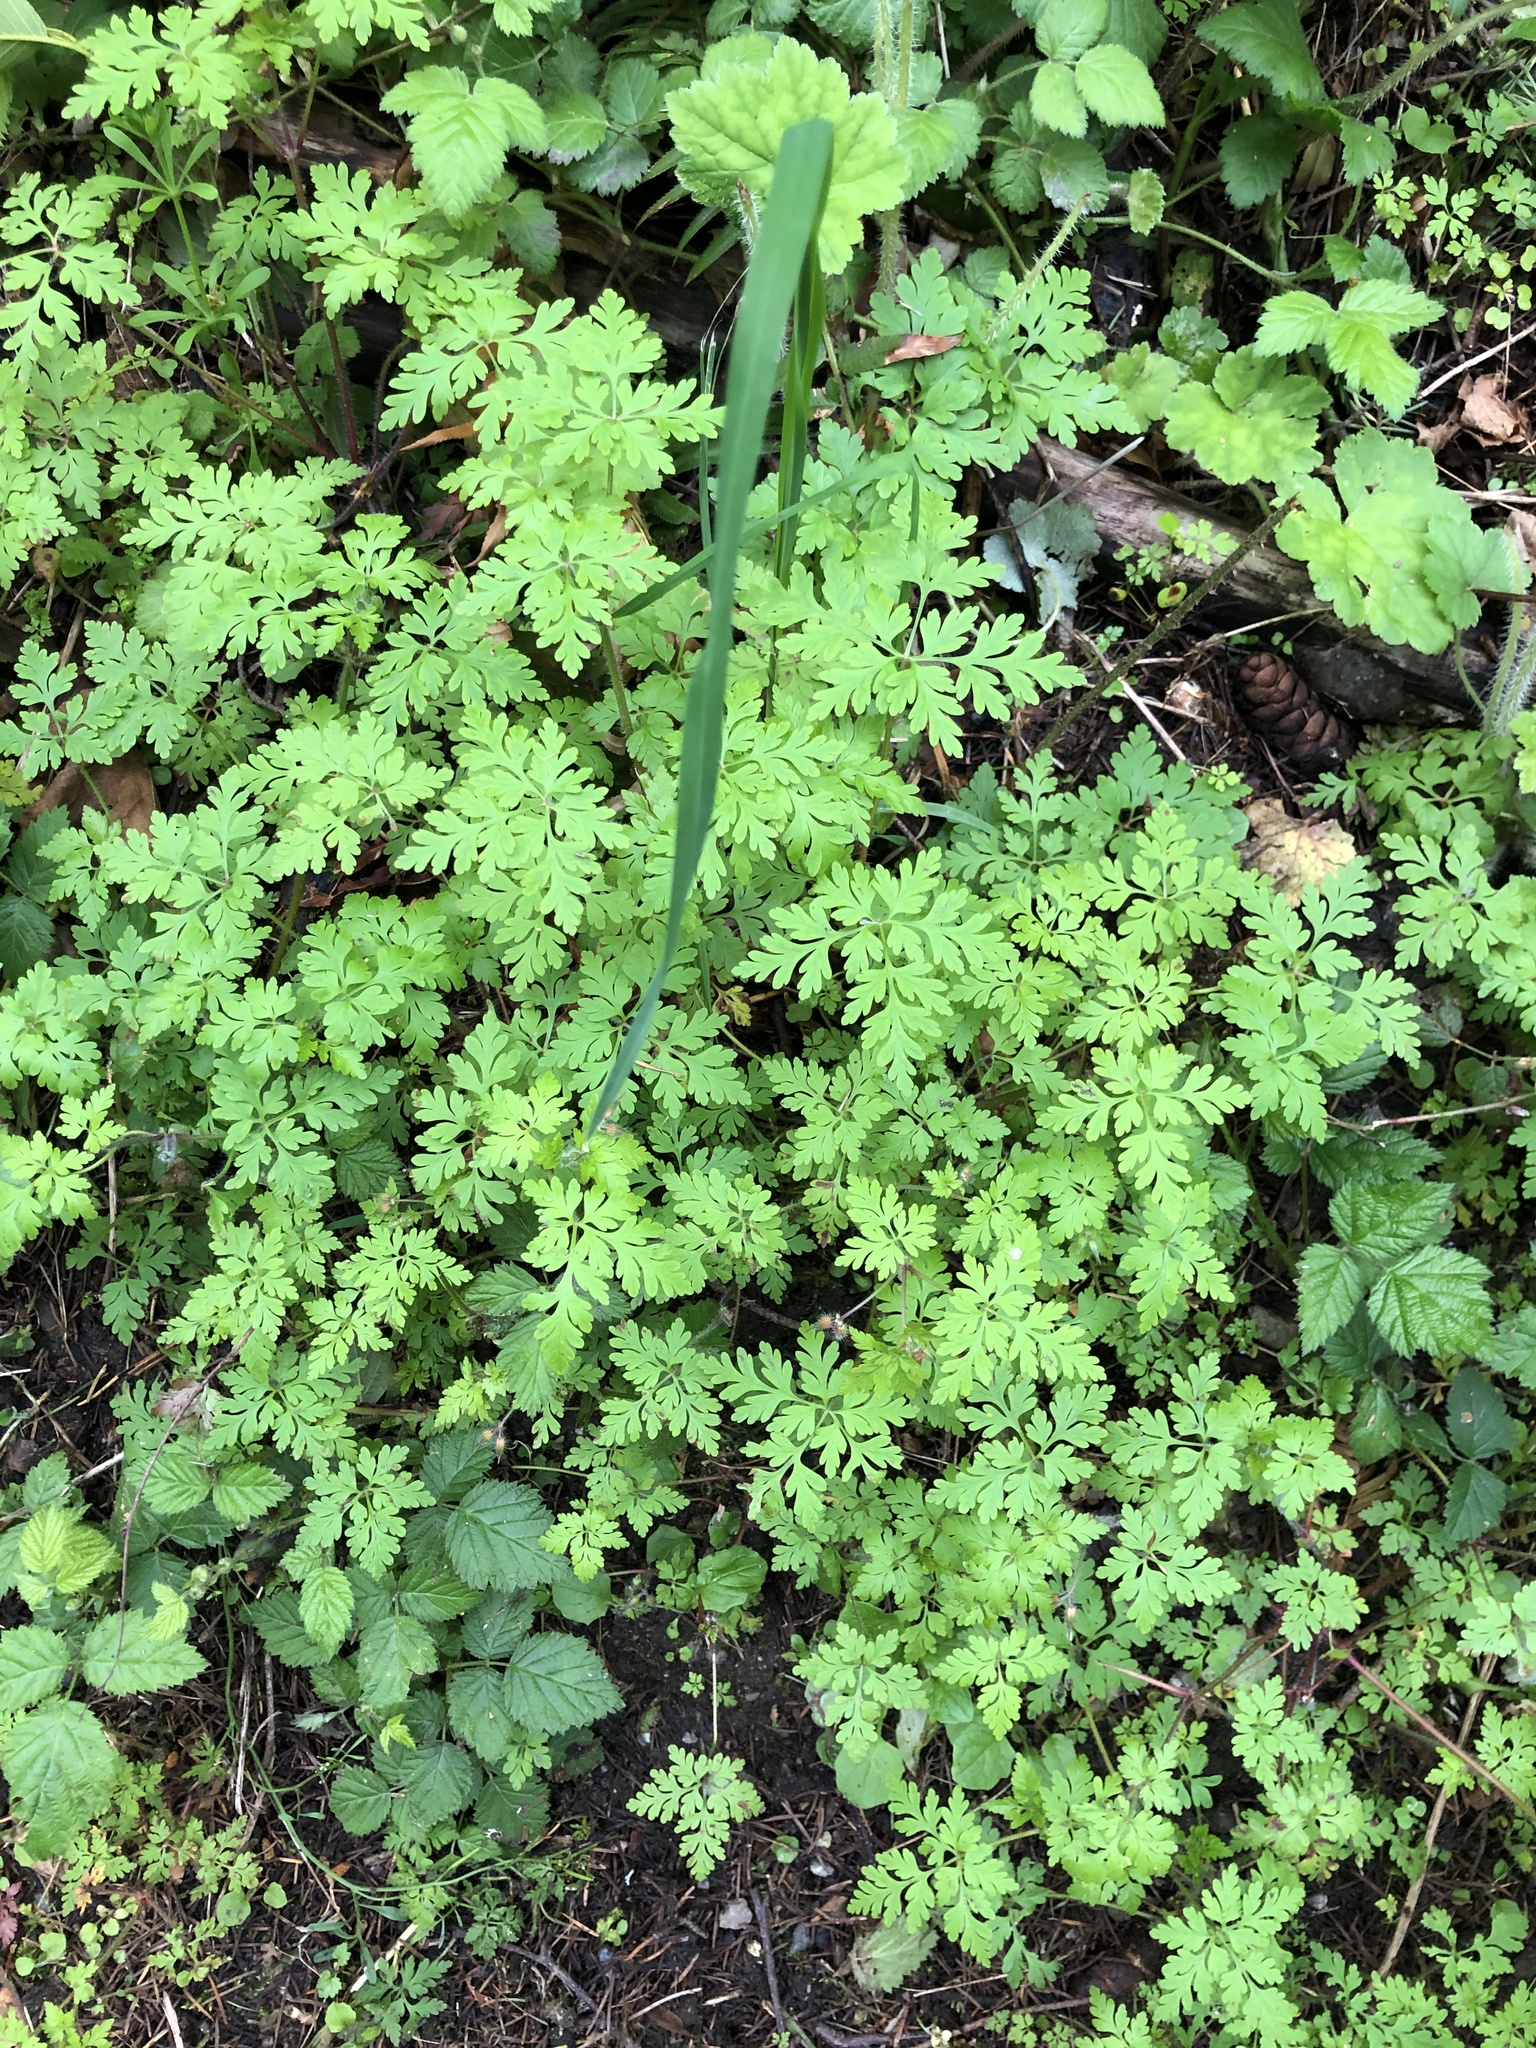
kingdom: Plantae
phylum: Tracheophyta
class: Magnoliopsida
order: Geraniales
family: Geraniaceae
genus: Geranium
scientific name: Geranium robertianum
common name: Herb-robert
